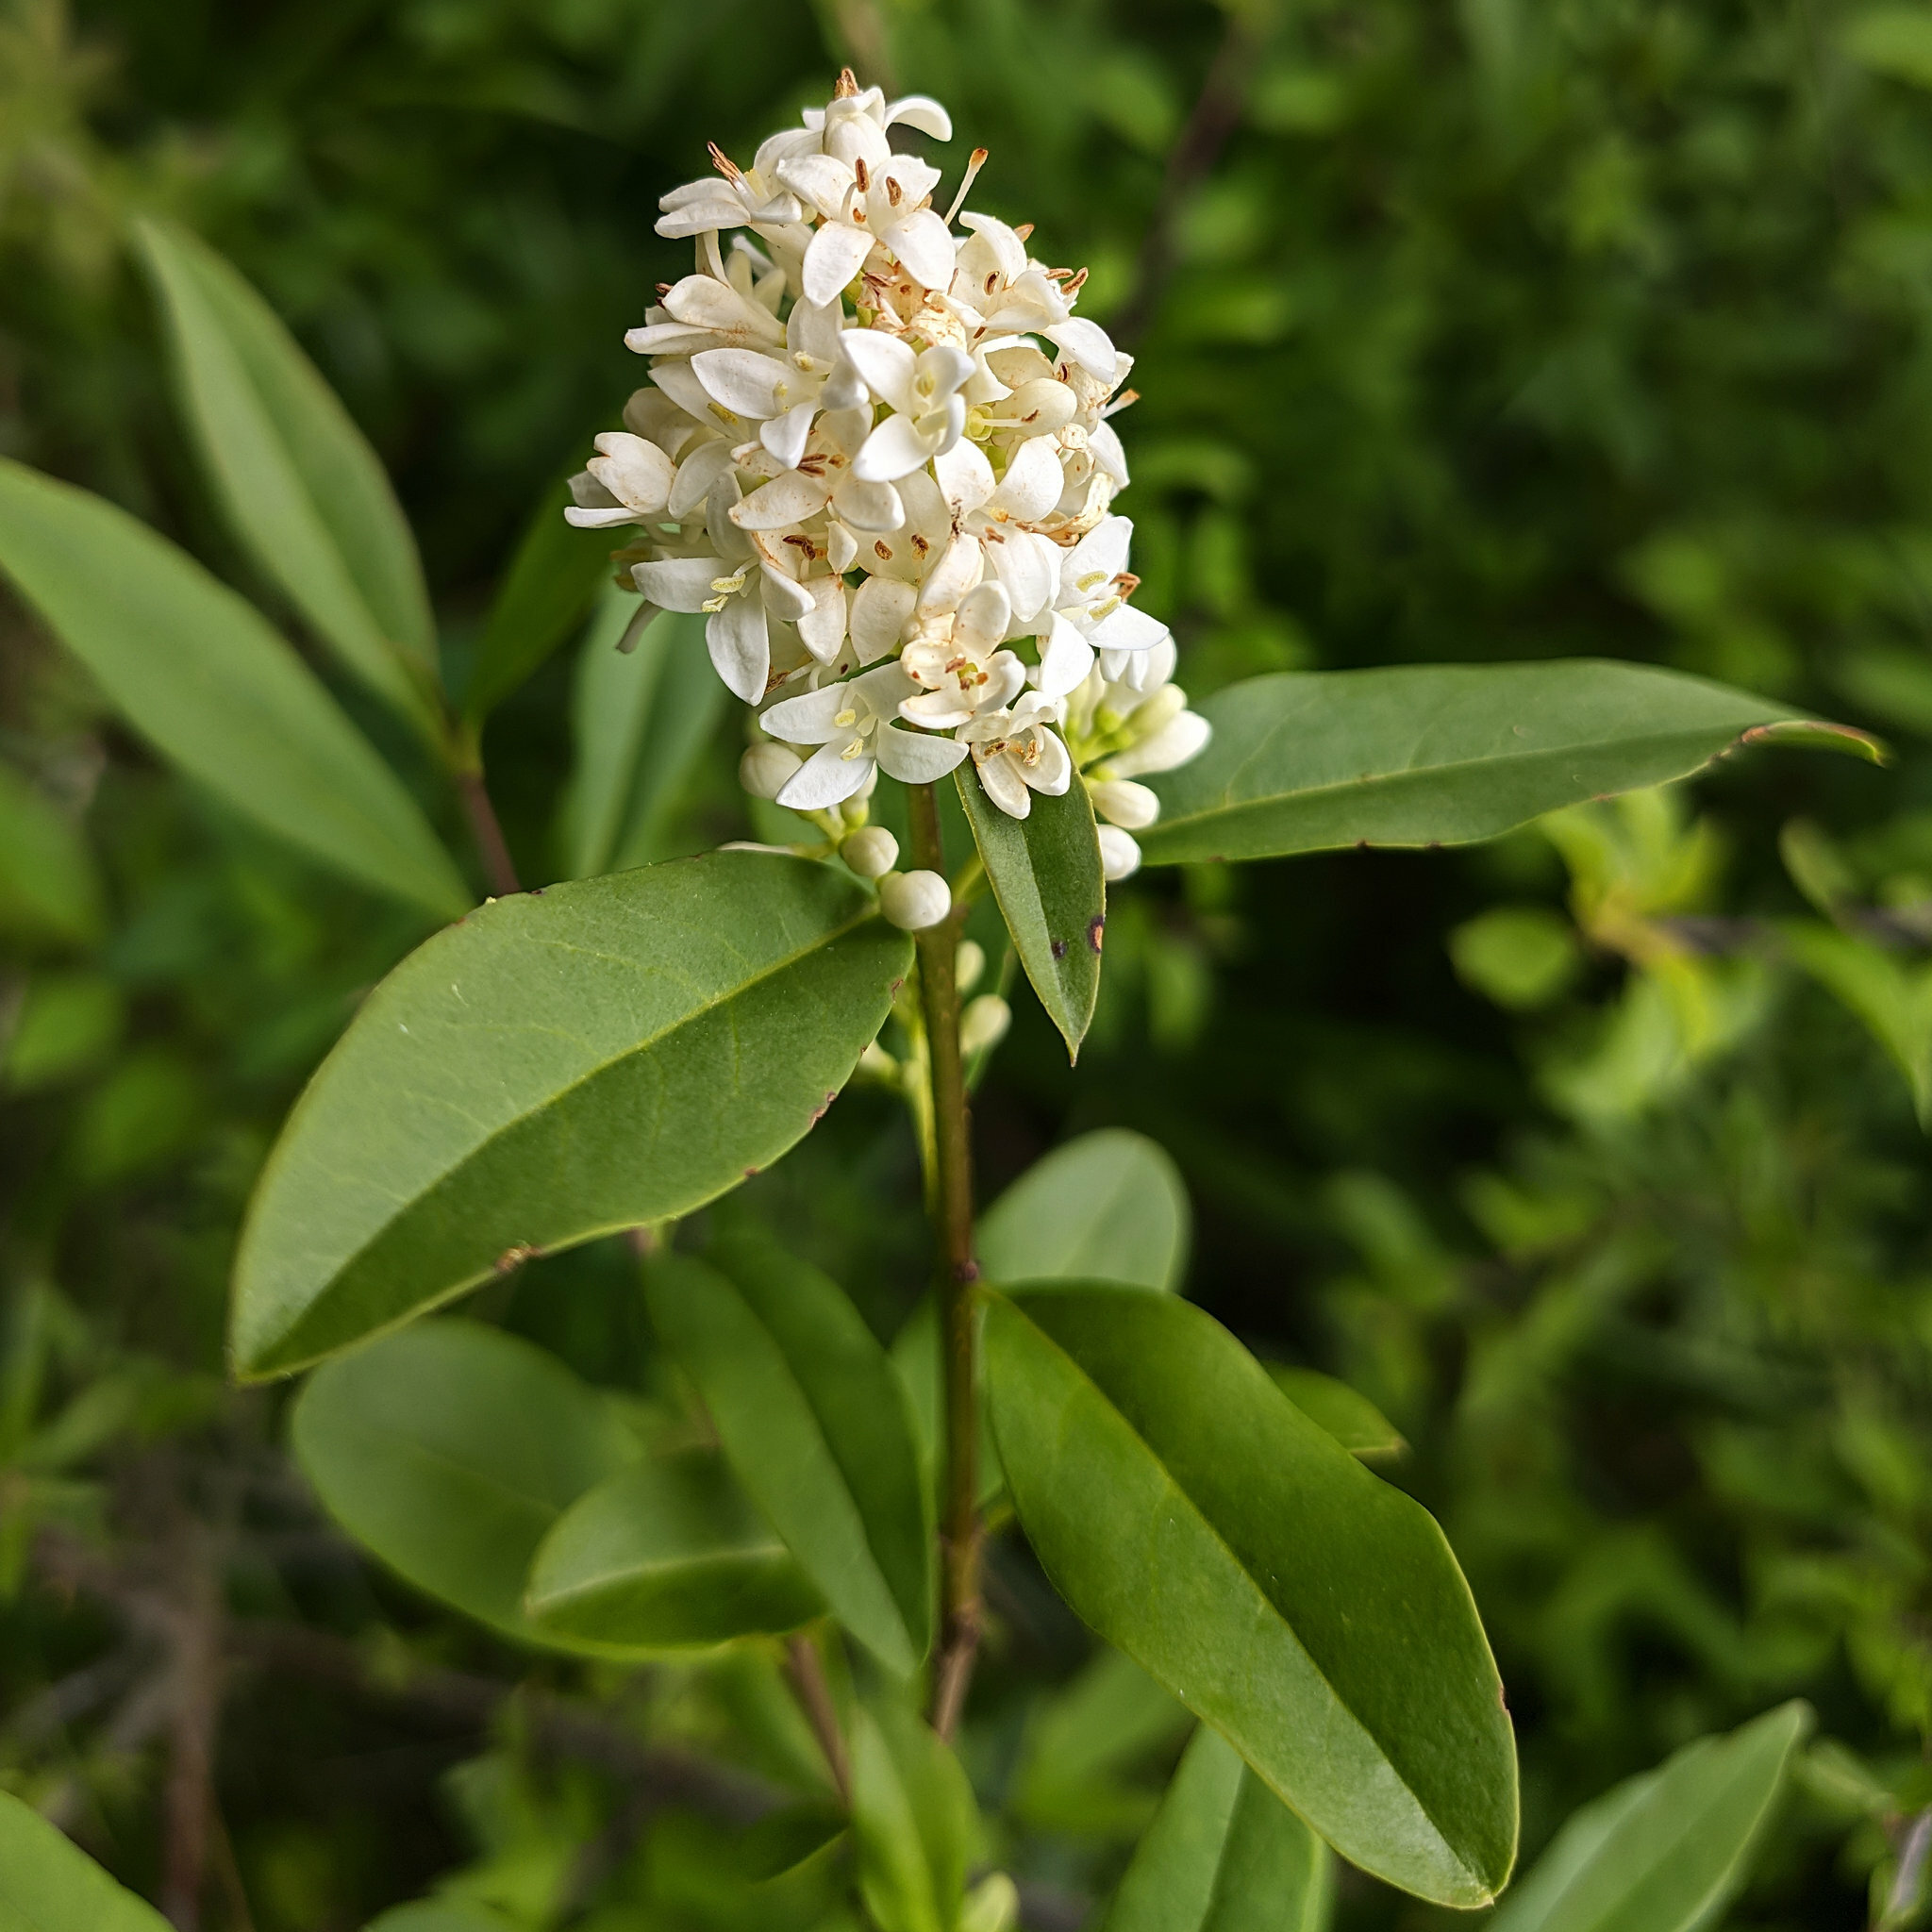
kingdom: Plantae
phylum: Tracheophyta
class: Magnoliopsida
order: Lamiales
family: Oleaceae
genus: Ligustrum
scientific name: Ligustrum vulgare
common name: Wild privet
